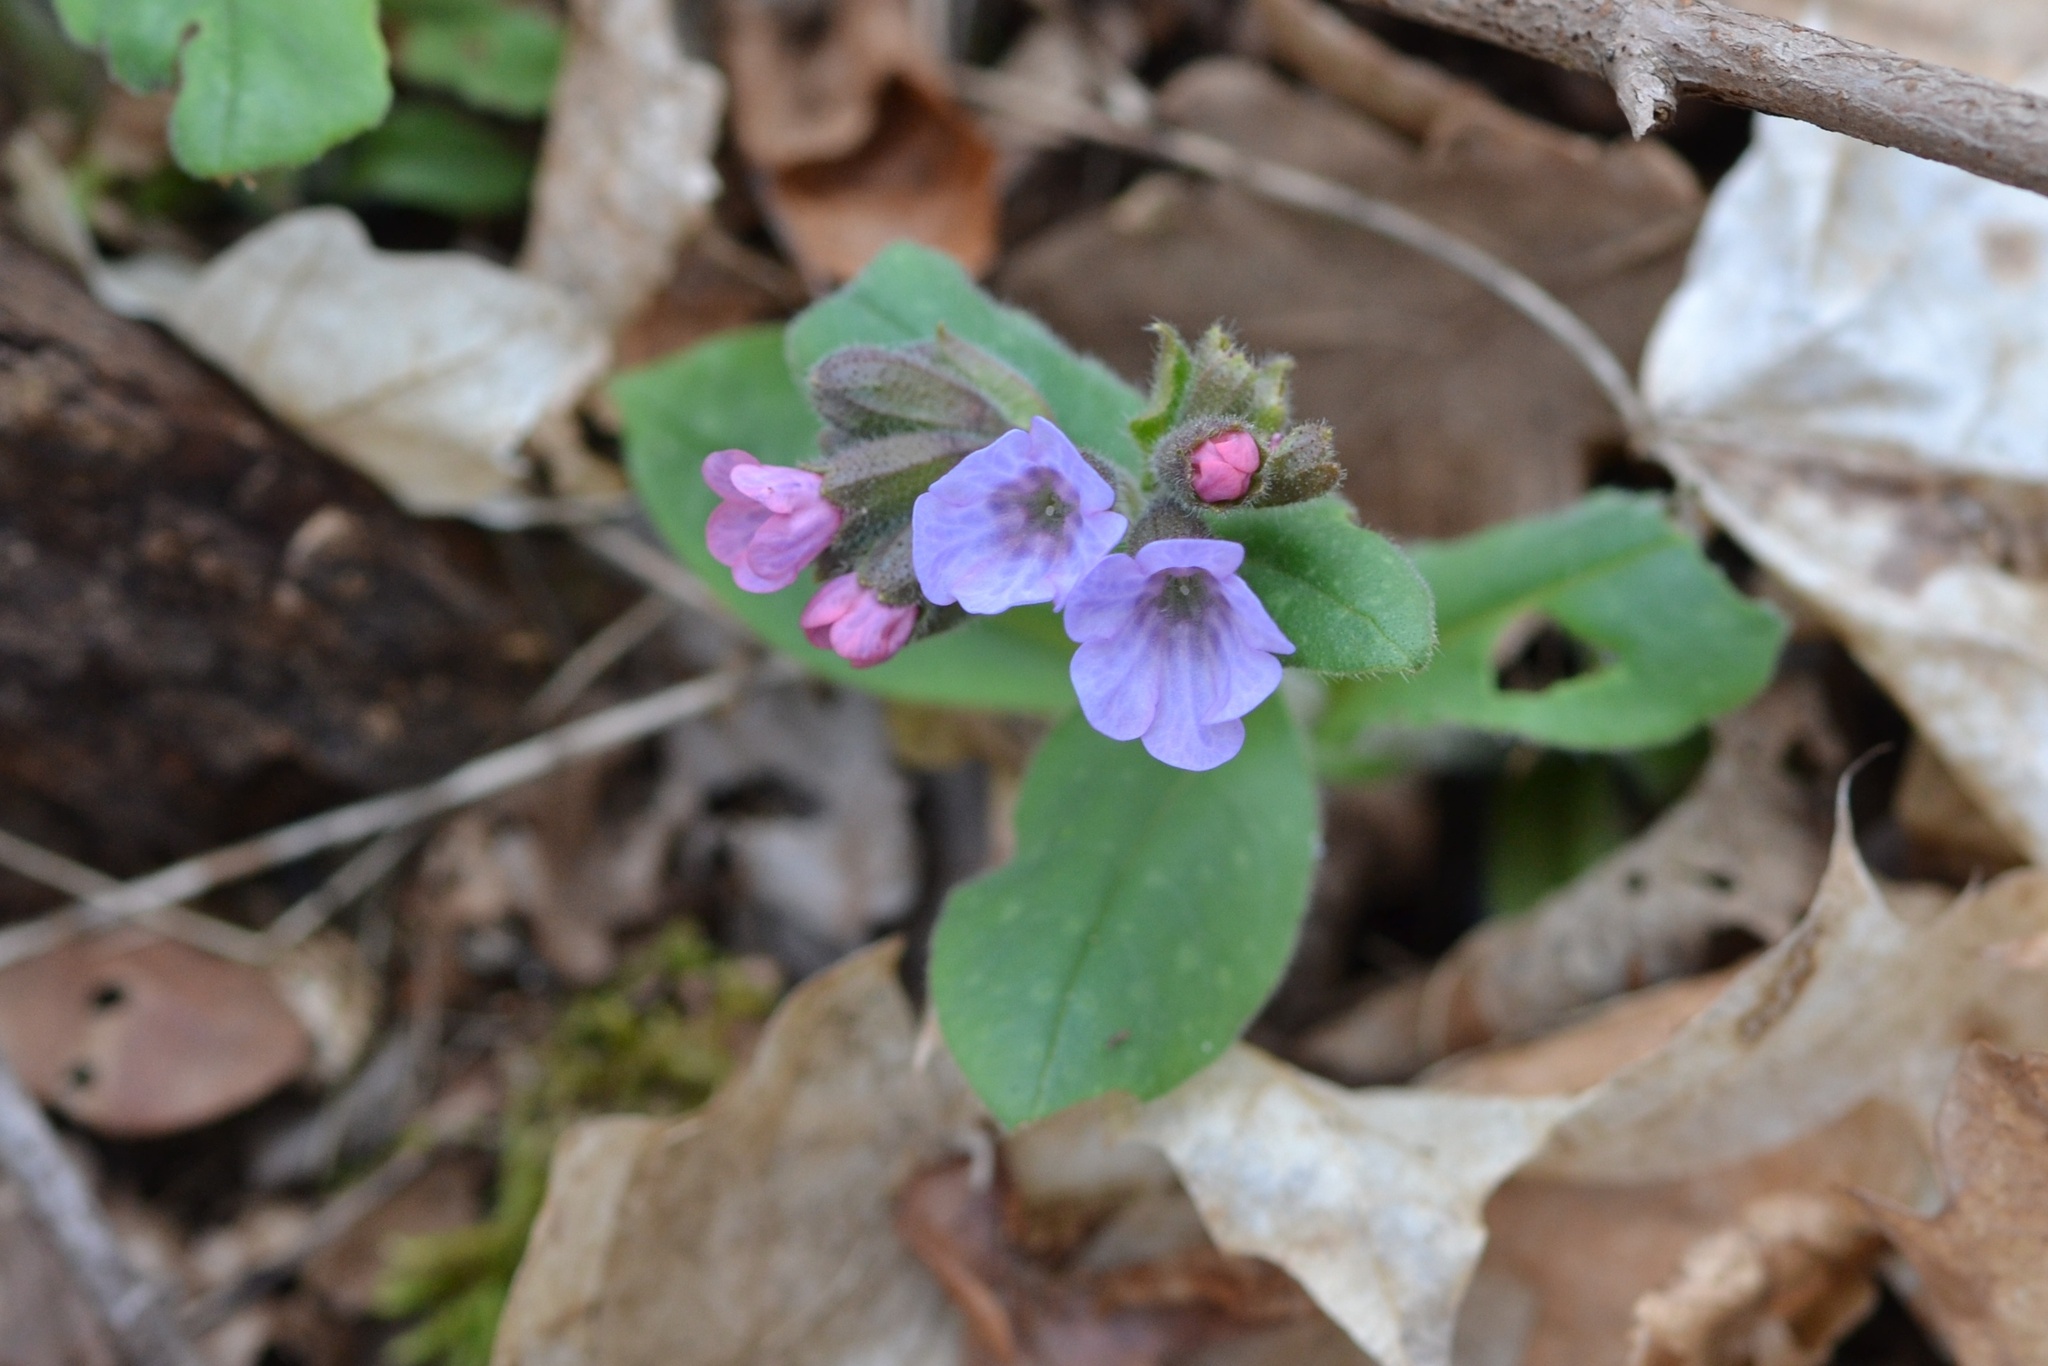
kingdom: Plantae
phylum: Tracheophyta
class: Magnoliopsida
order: Boraginales
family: Boraginaceae
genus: Pulmonaria
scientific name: Pulmonaria obscura
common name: Suffolk lungwort
